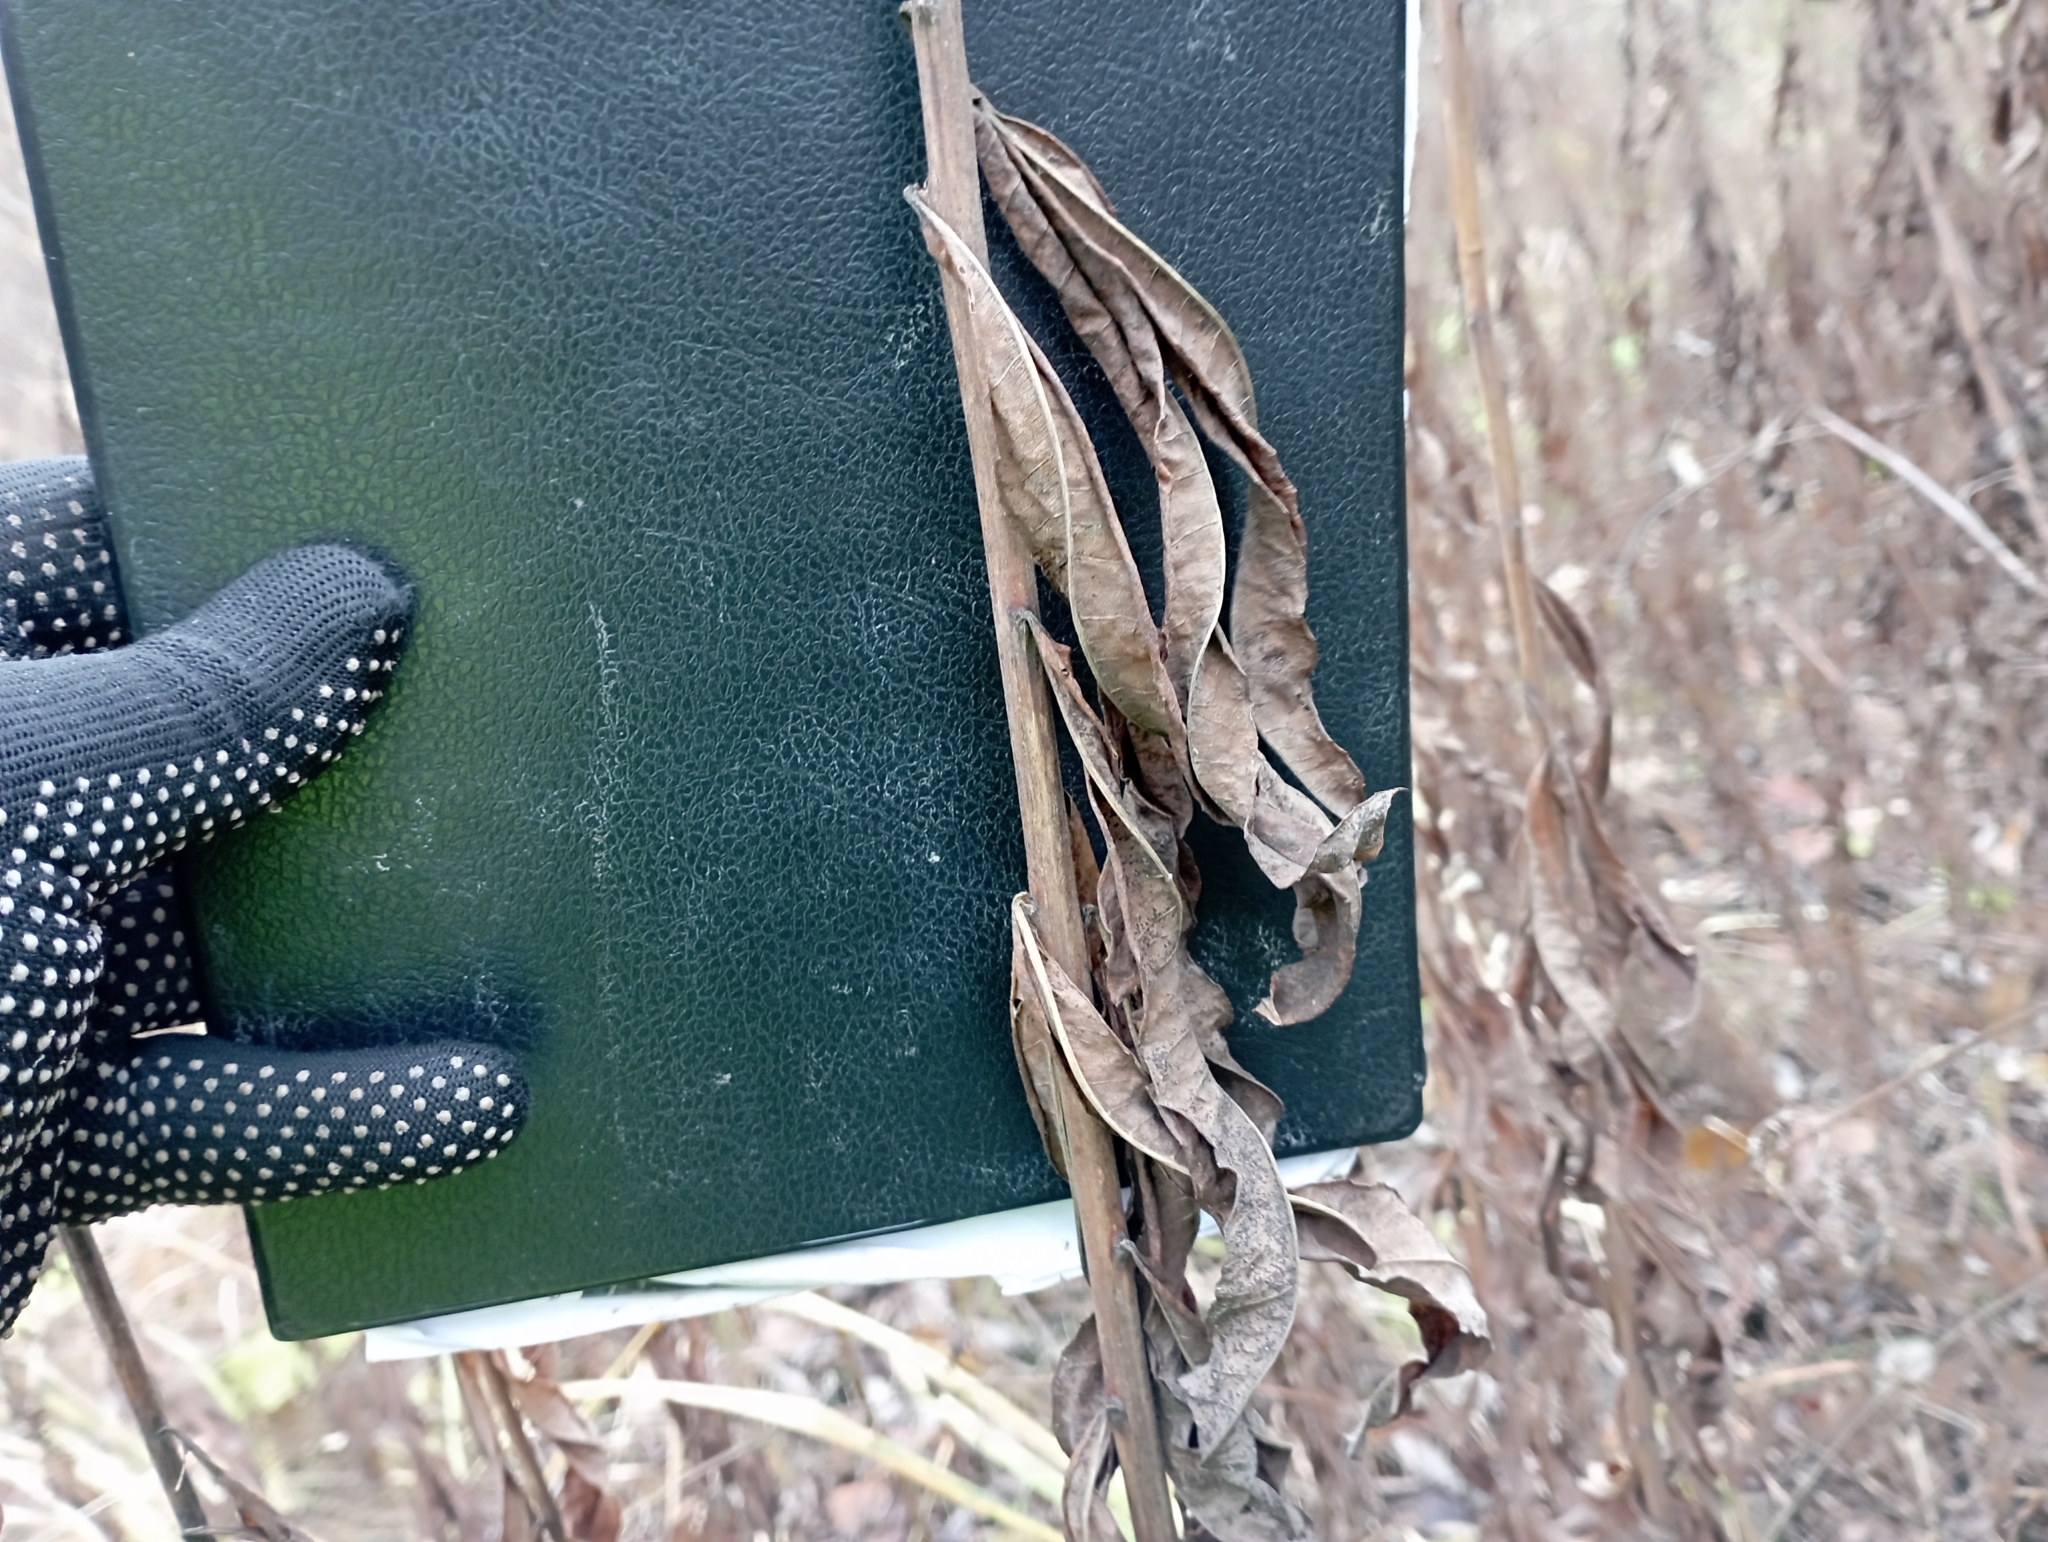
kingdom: Plantae
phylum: Tracheophyta
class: Magnoliopsida
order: Myrtales
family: Onagraceae
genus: Chamaenerion
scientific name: Chamaenerion angustifolium
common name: Fireweed
